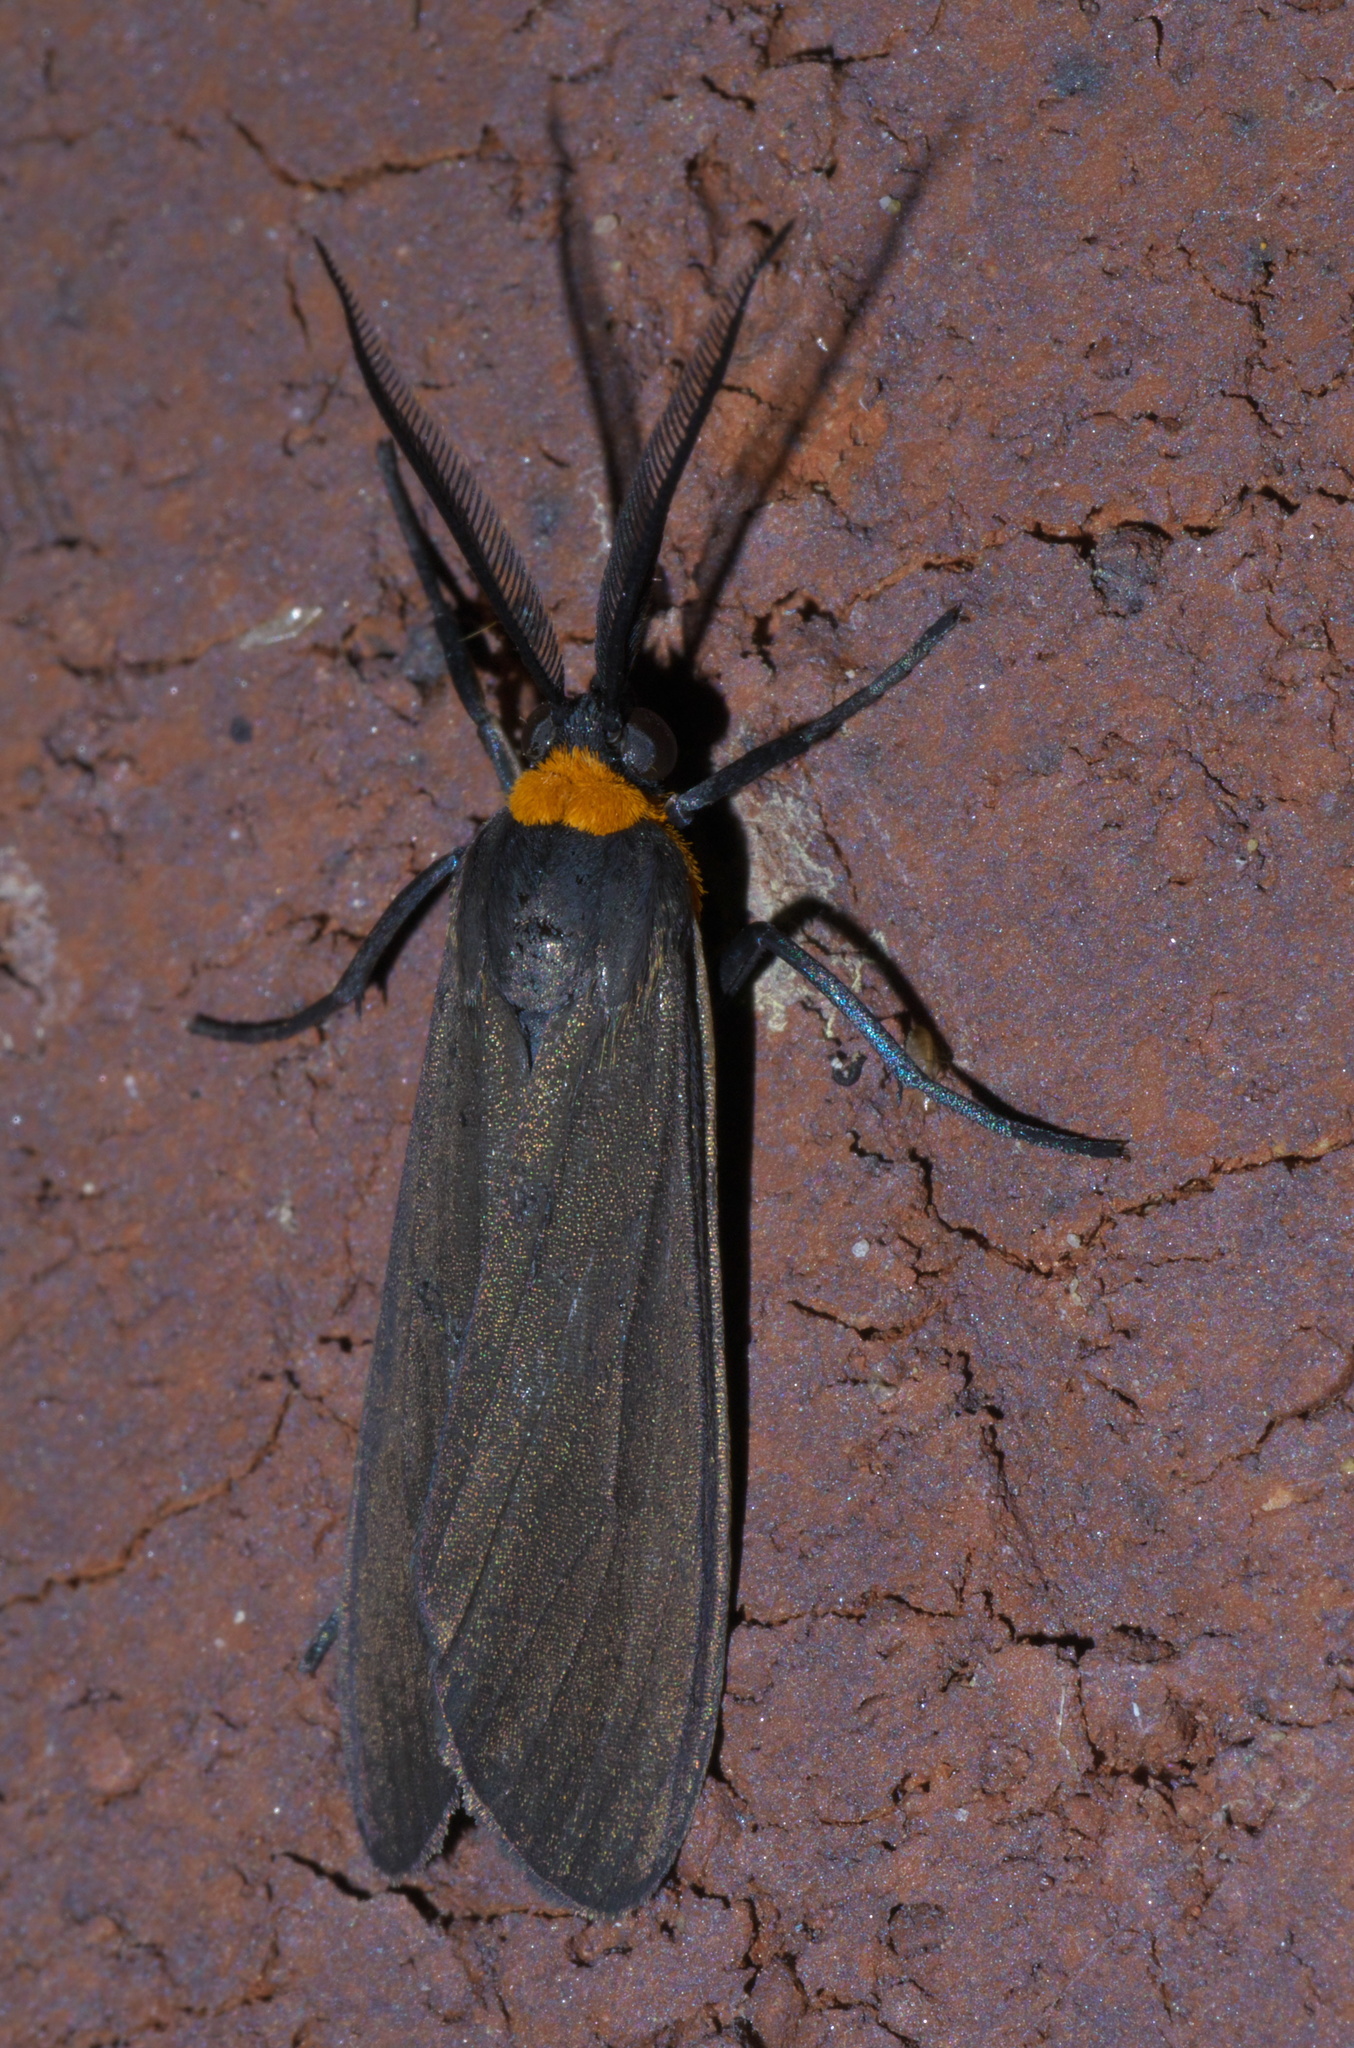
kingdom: Animalia
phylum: Arthropoda
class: Insecta
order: Lepidoptera
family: Erebidae
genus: Cisseps
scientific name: Cisseps fulvicollis
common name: Yellow-collared scape moth
